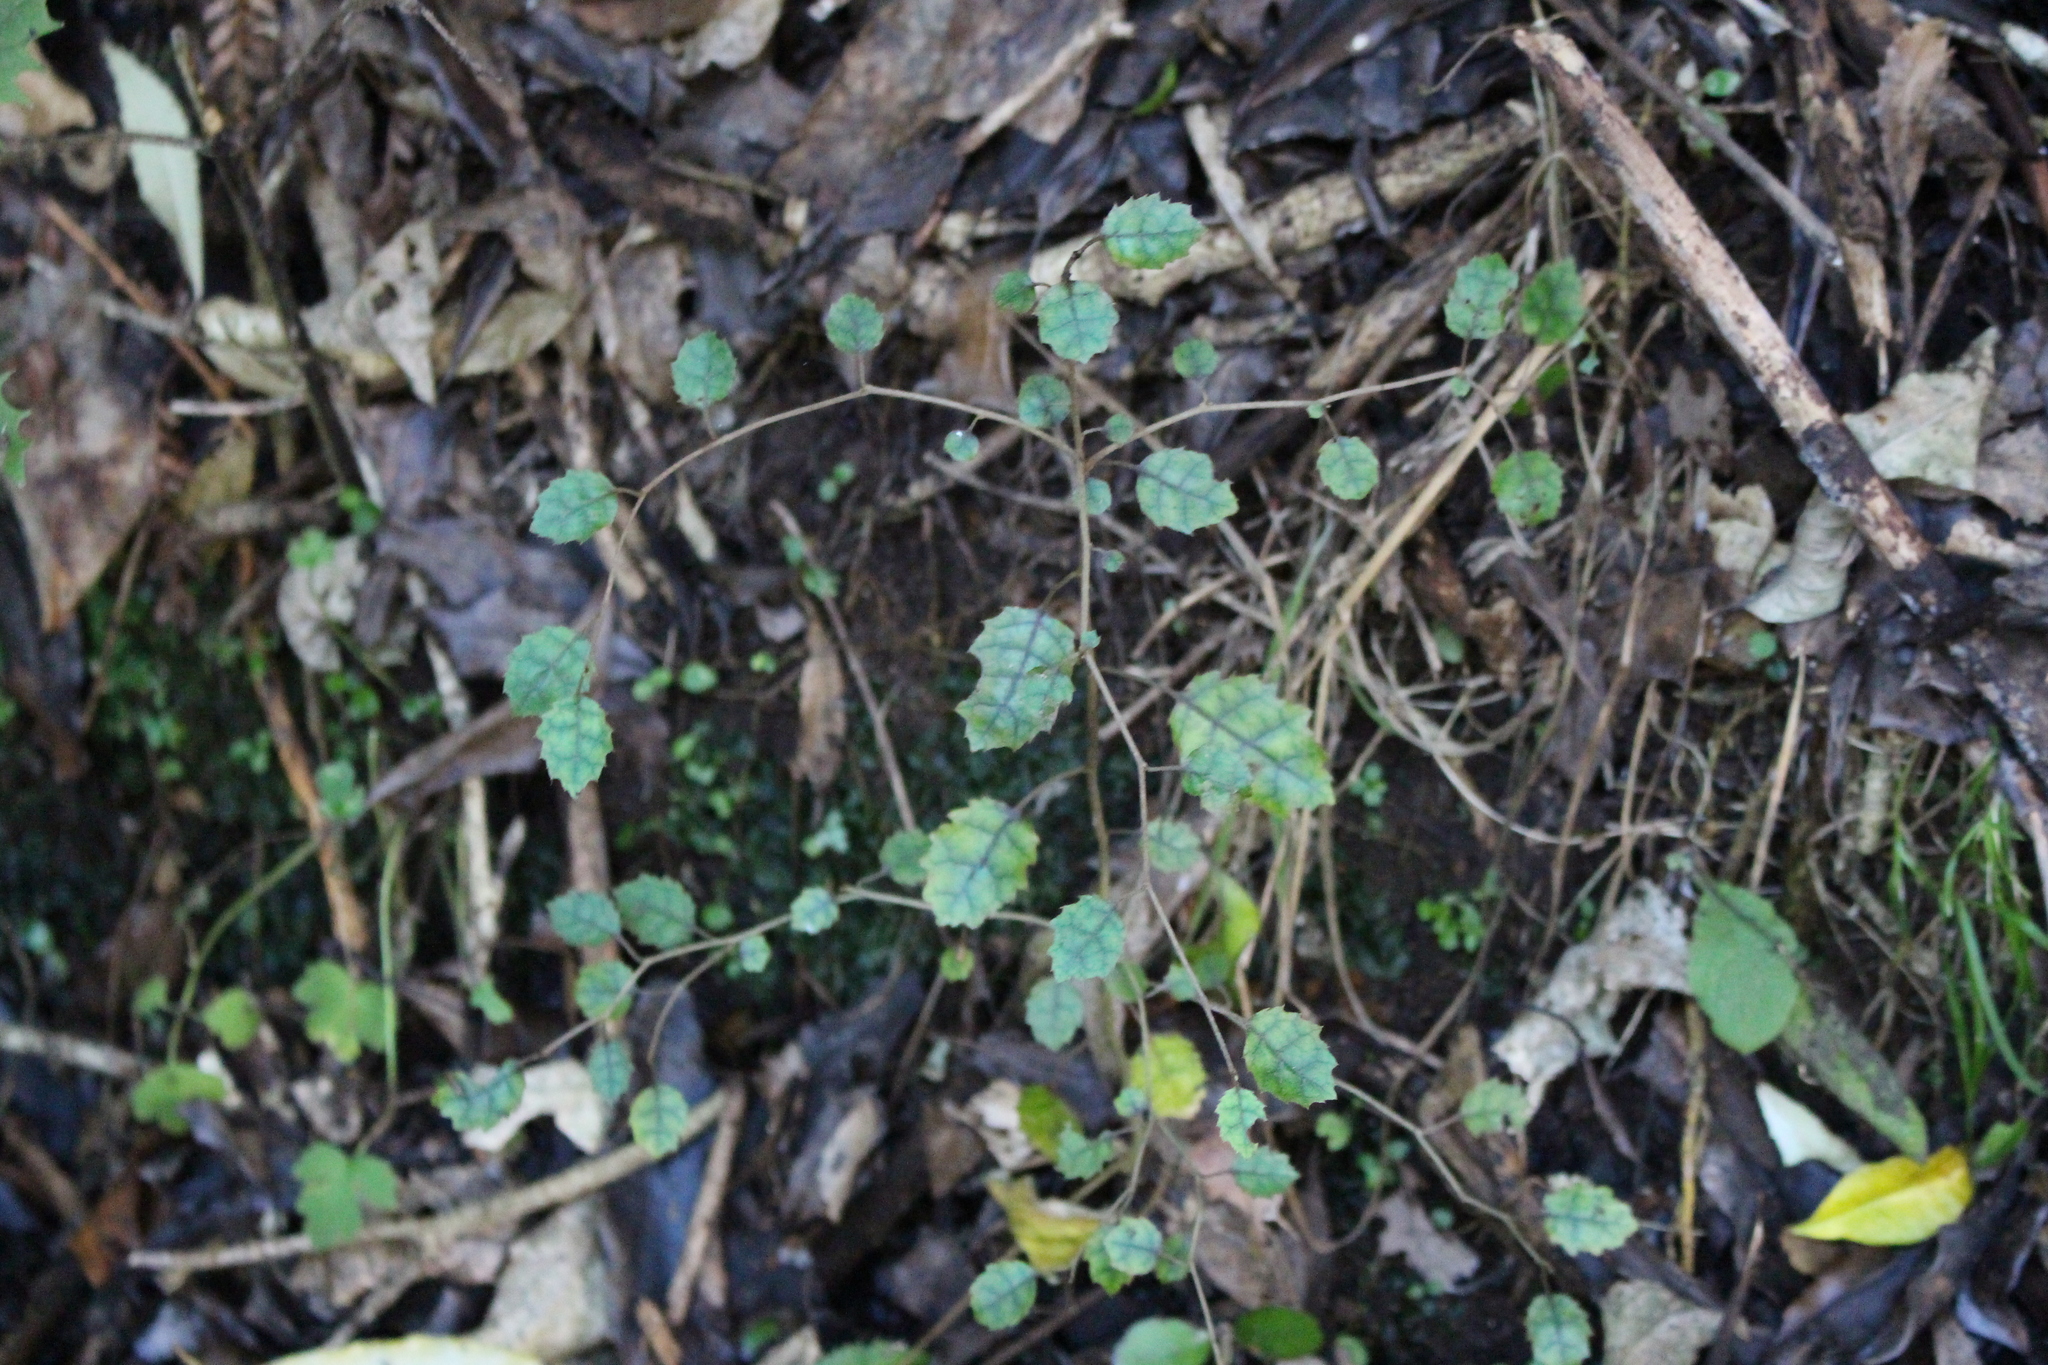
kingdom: Plantae
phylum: Tracheophyta
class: Magnoliopsida
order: Asterales
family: Rousseaceae
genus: Carpodetus
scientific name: Carpodetus serratus
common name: White mapau
